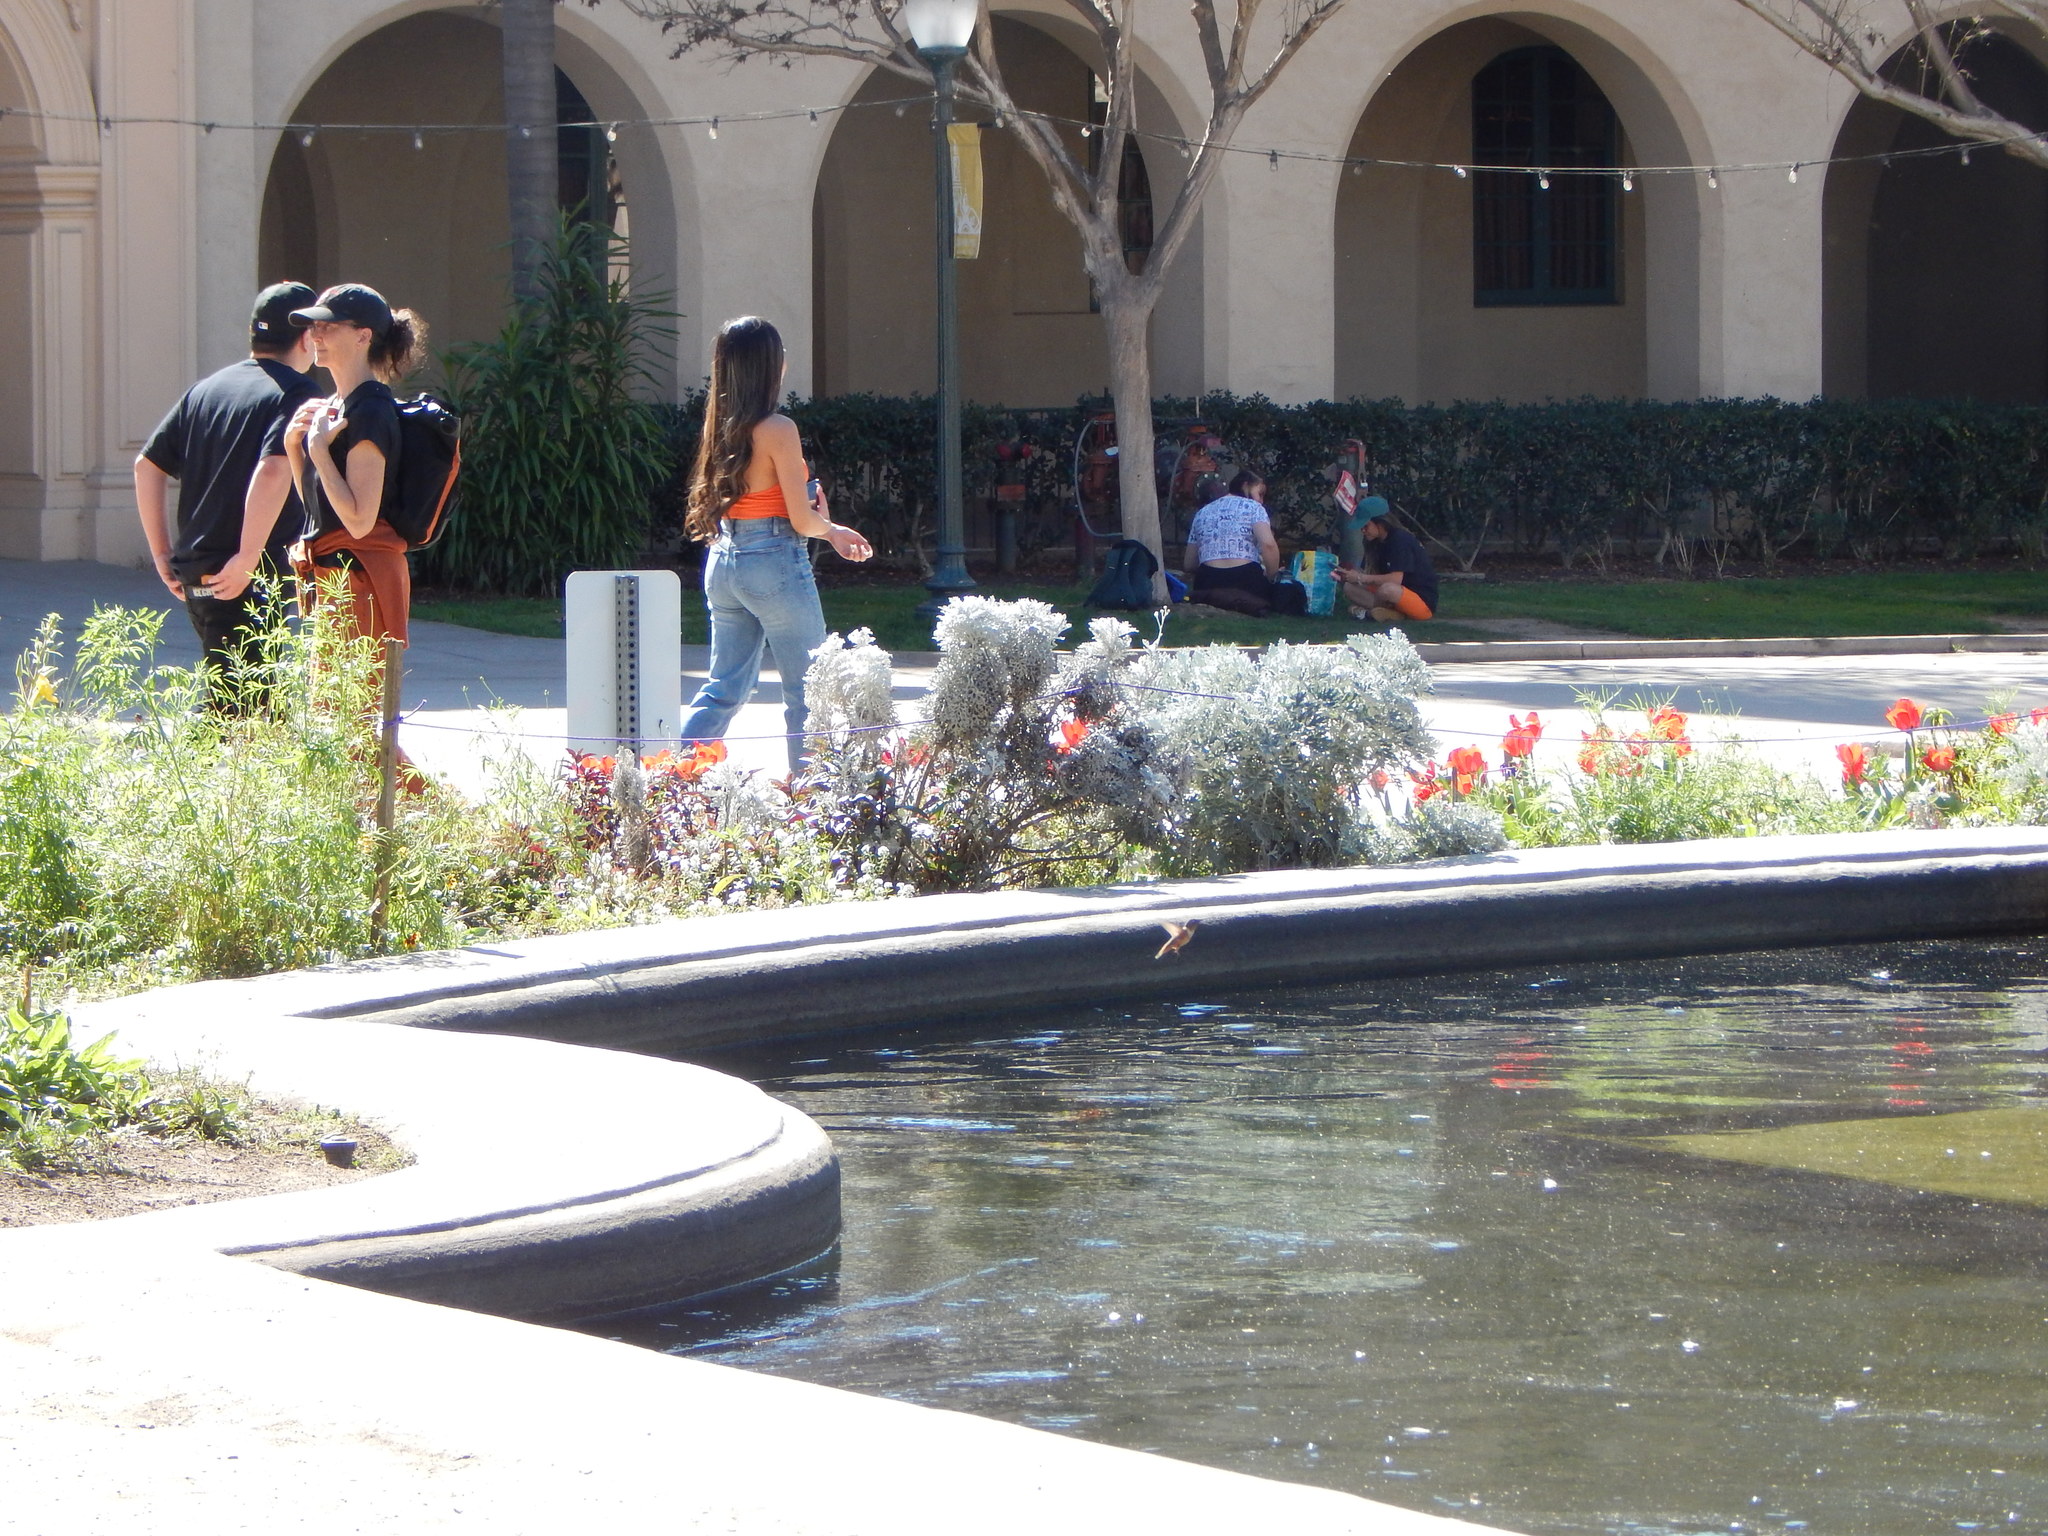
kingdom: Animalia
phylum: Chordata
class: Aves
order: Apodiformes
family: Trochilidae
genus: Selasphorus
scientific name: Selasphorus
